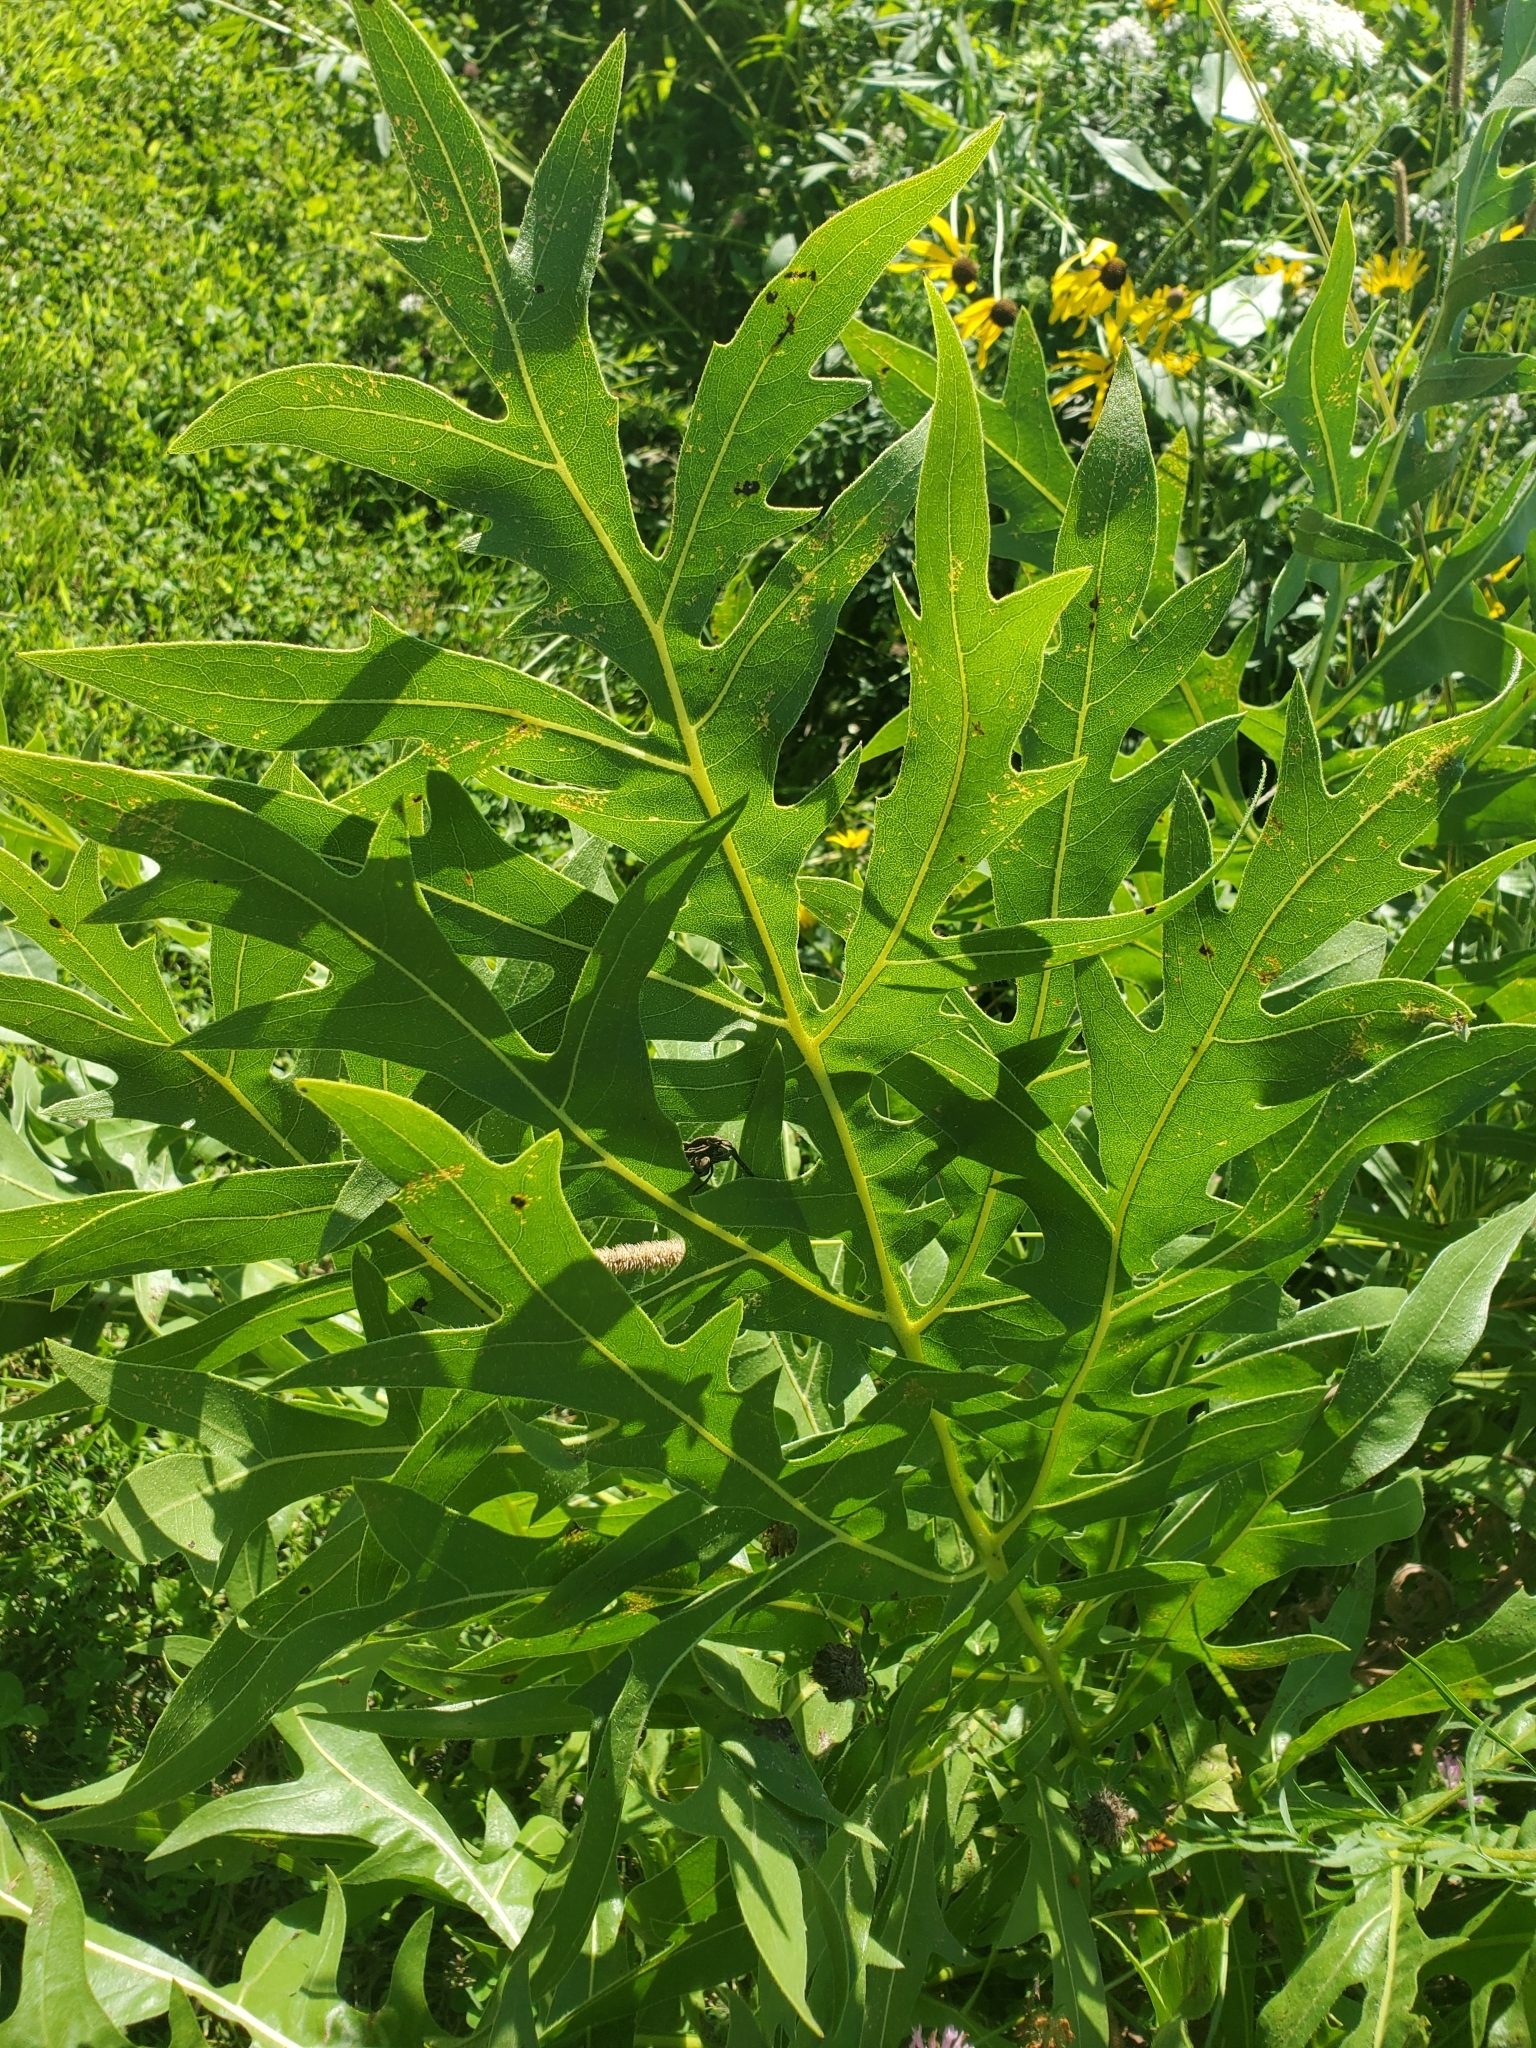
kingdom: Plantae
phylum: Tracheophyta
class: Magnoliopsida
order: Asterales
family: Asteraceae
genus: Silphium
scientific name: Silphium laciniatum
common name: Polarplant
